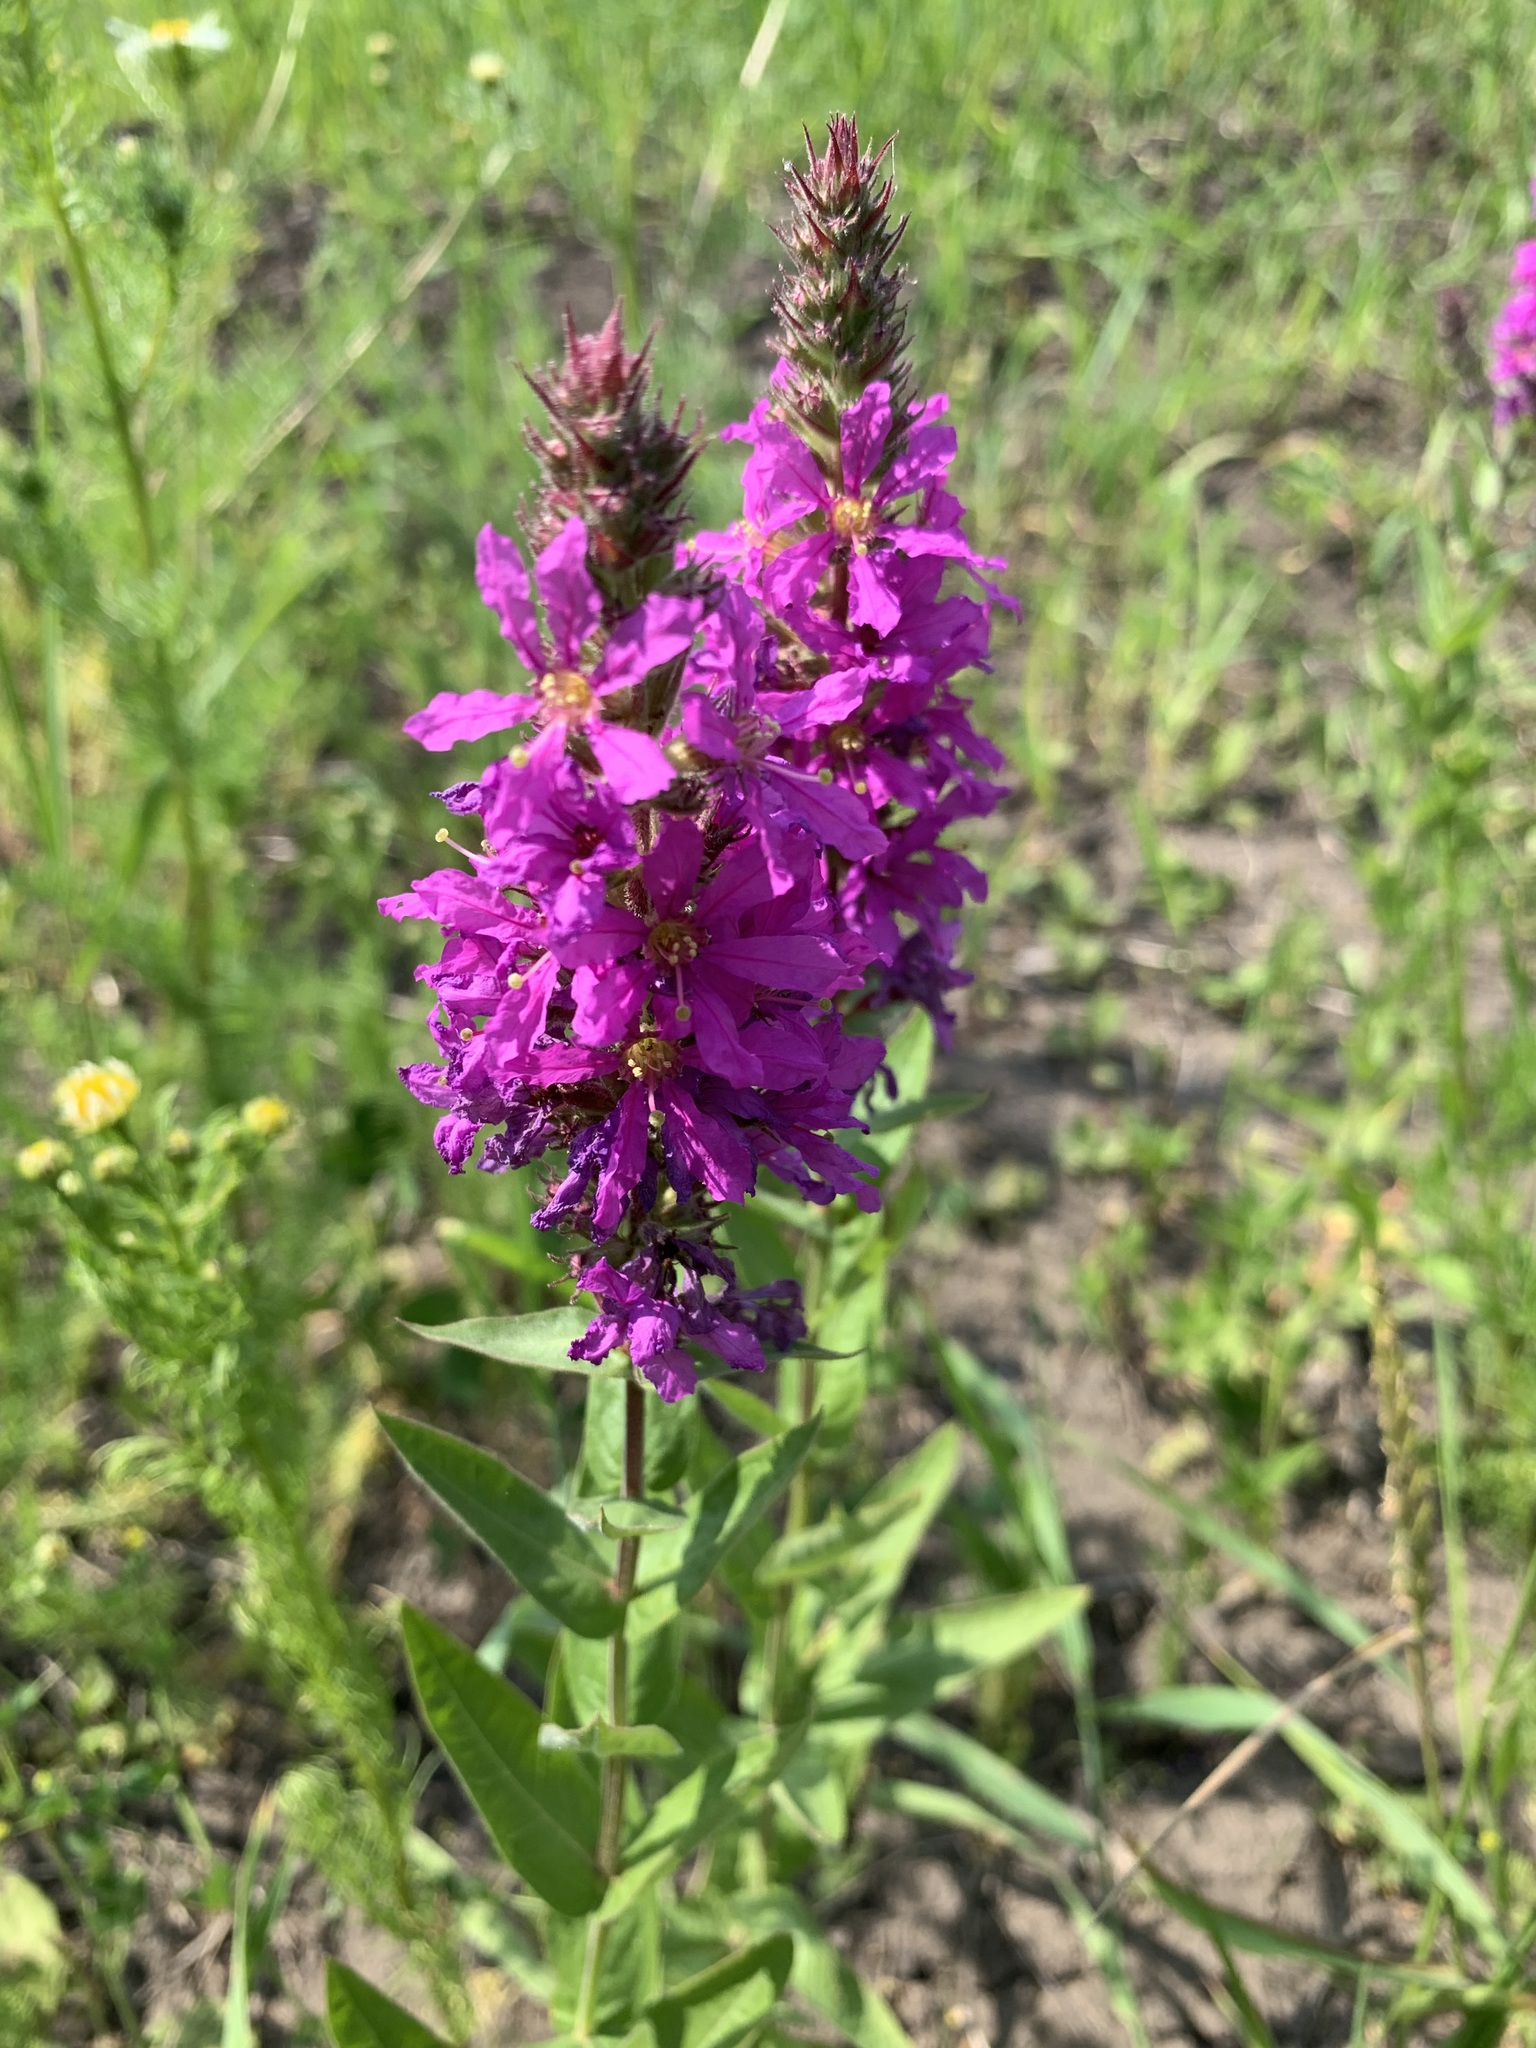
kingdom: Plantae
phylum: Tracheophyta
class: Magnoliopsida
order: Myrtales
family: Lythraceae
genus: Lythrum
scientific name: Lythrum salicaria
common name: Purple loosestrife
